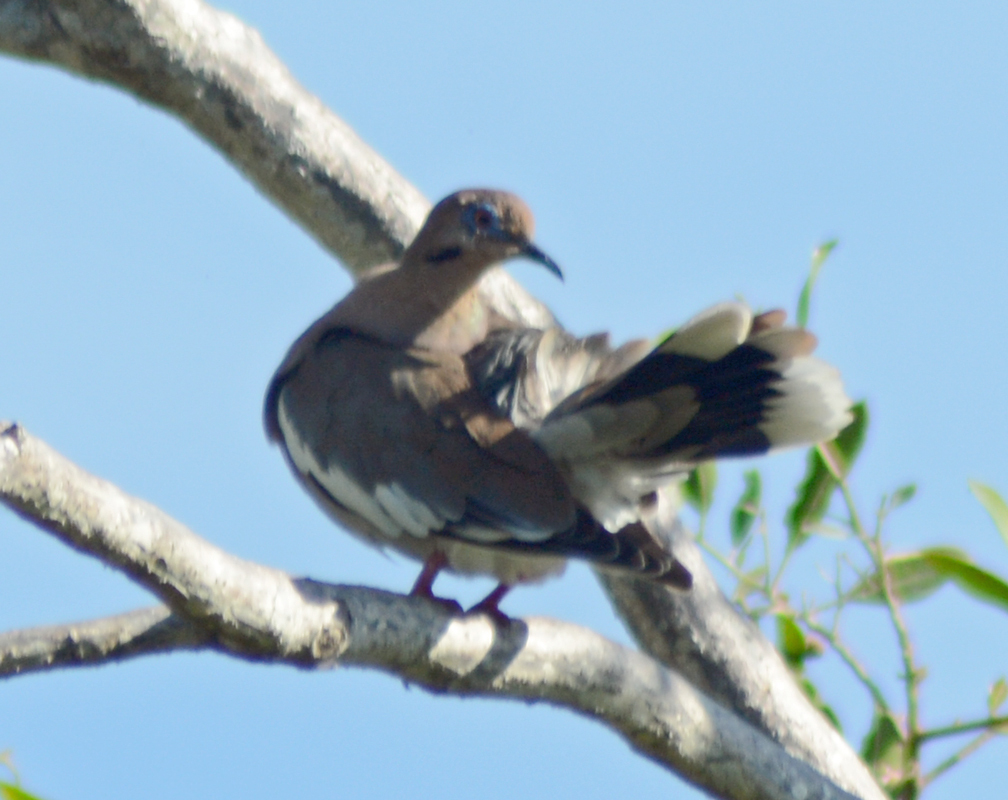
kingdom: Animalia
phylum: Chordata
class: Aves
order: Columbiformes
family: Columbidae
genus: Zenaida
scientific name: Zenaida asiatica
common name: White-winged dove
